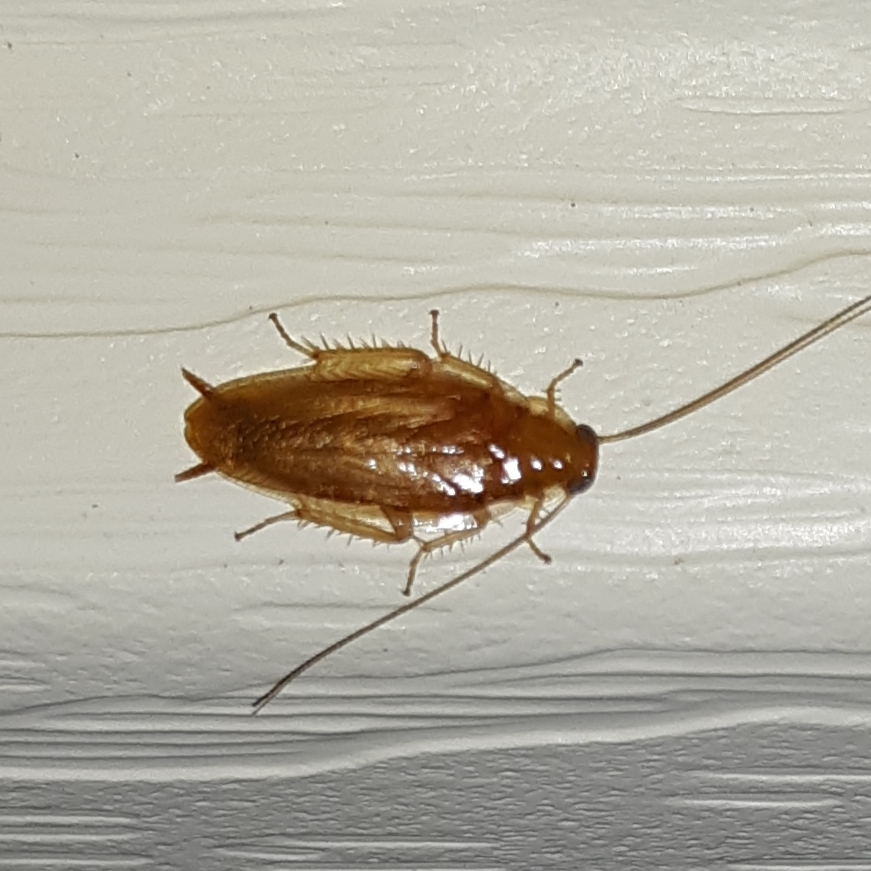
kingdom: Animalia
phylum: Arthropoda
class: Insecta
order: Blattodea
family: Ectobiidae
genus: Chorisoneura
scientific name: Chorisoneura texensis
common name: Small texas cockroach
